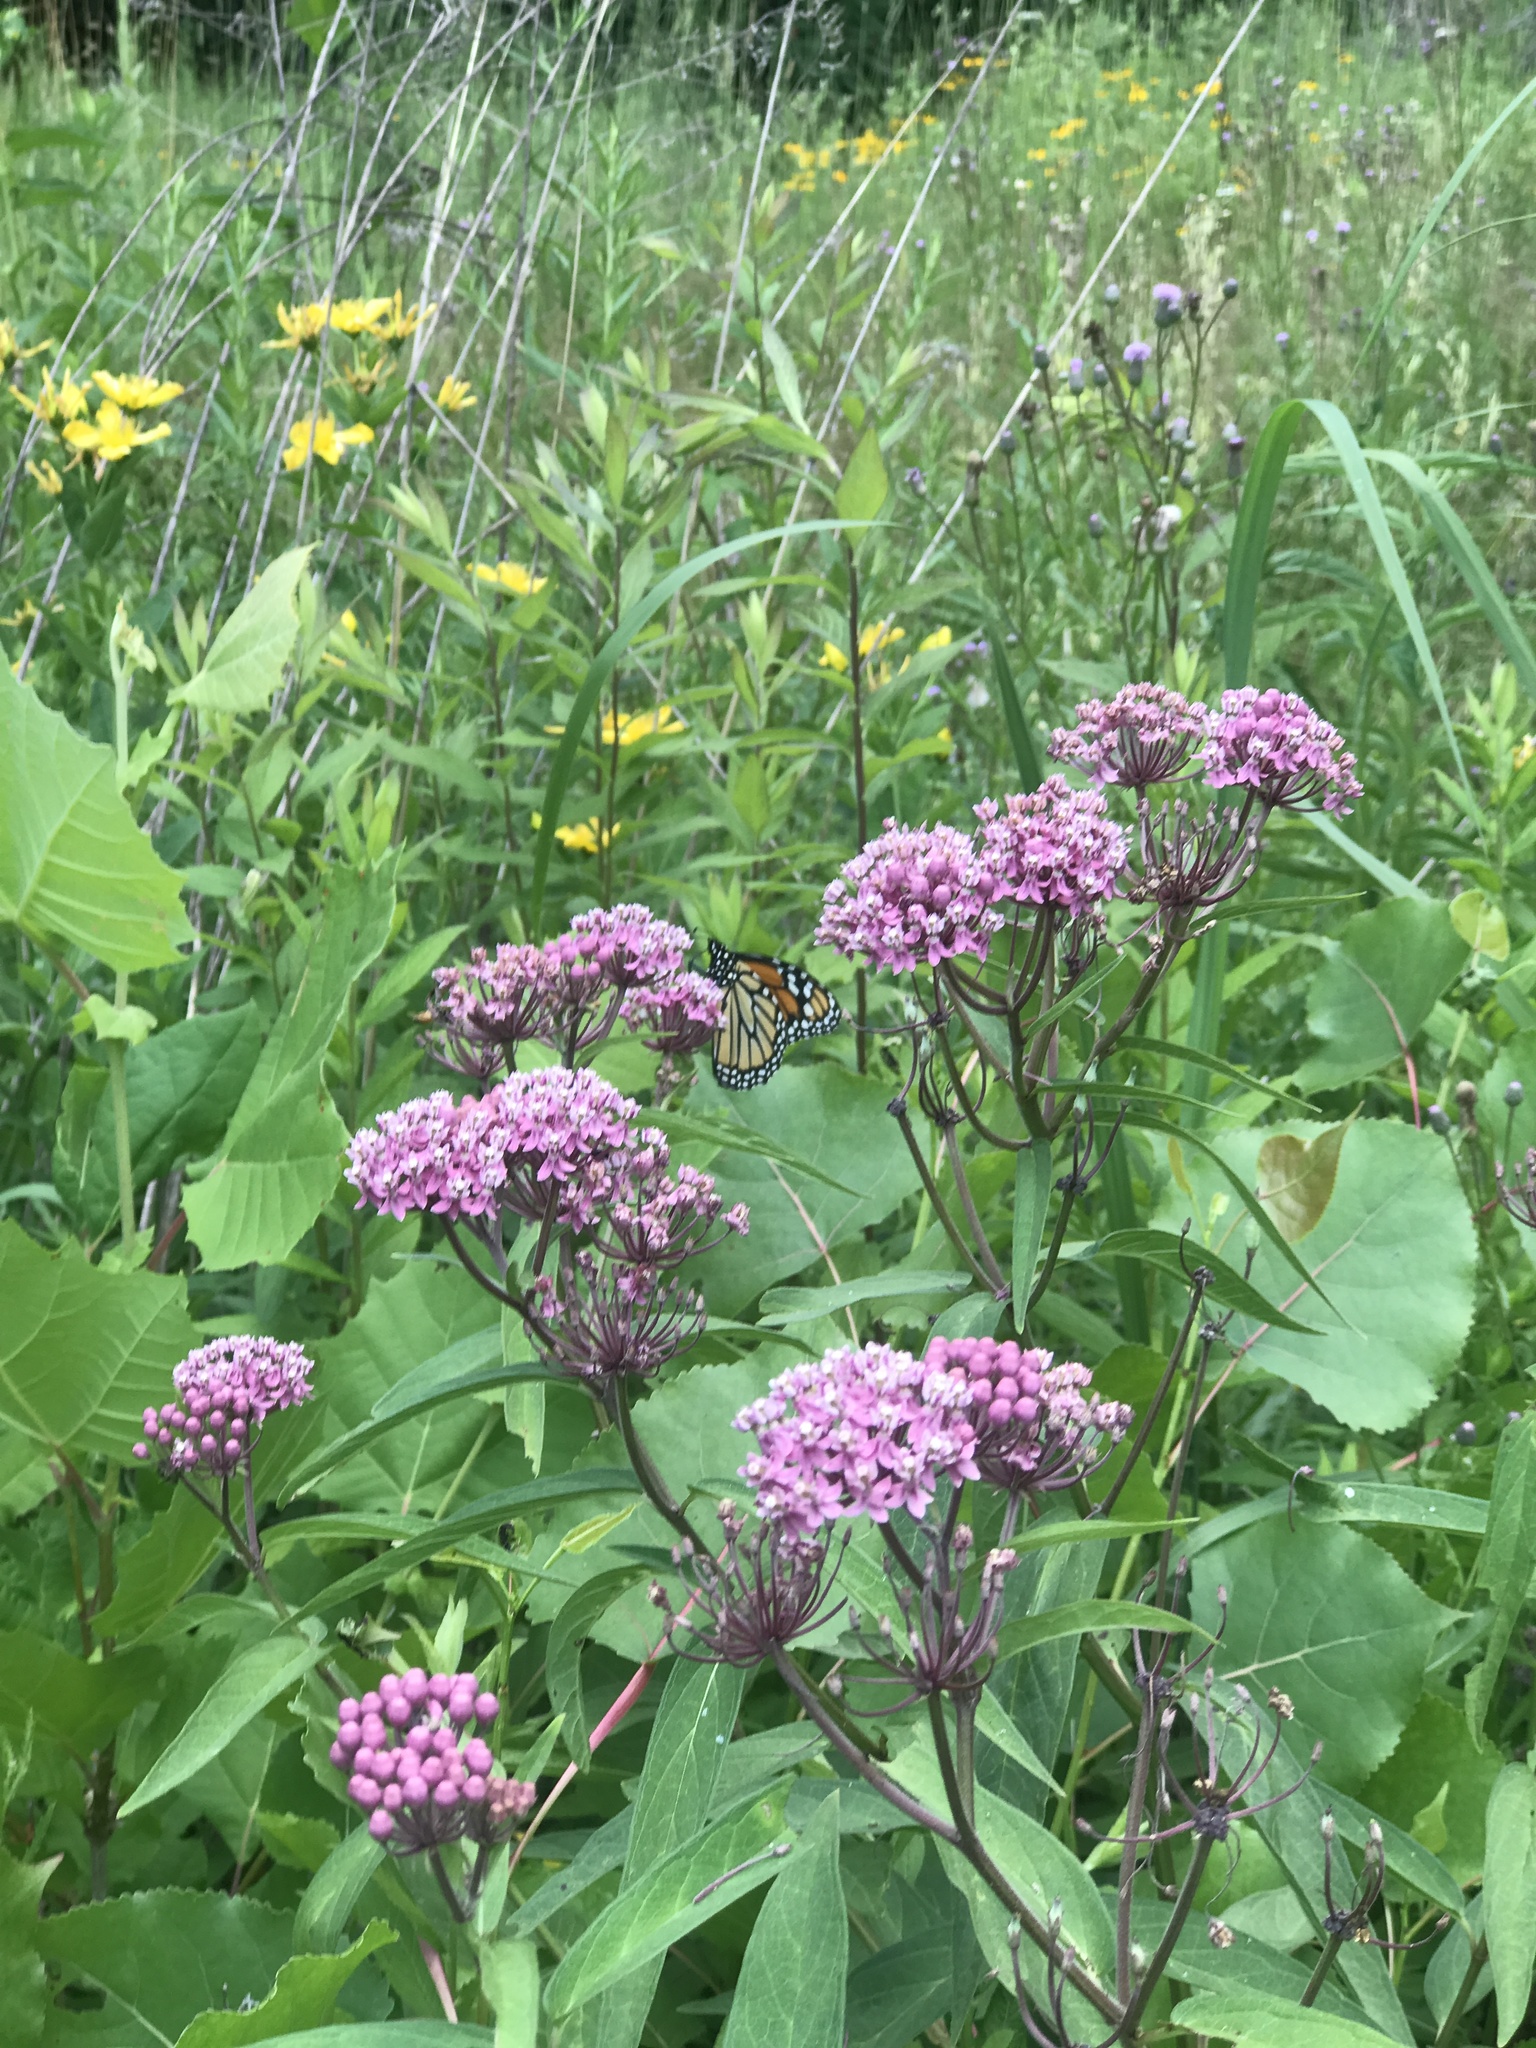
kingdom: Animalia
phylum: Arthropoda
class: Insecta
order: Lepidoptera
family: Nymphalidae
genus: Danaus
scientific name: Danaus plexippus
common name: Monarch
